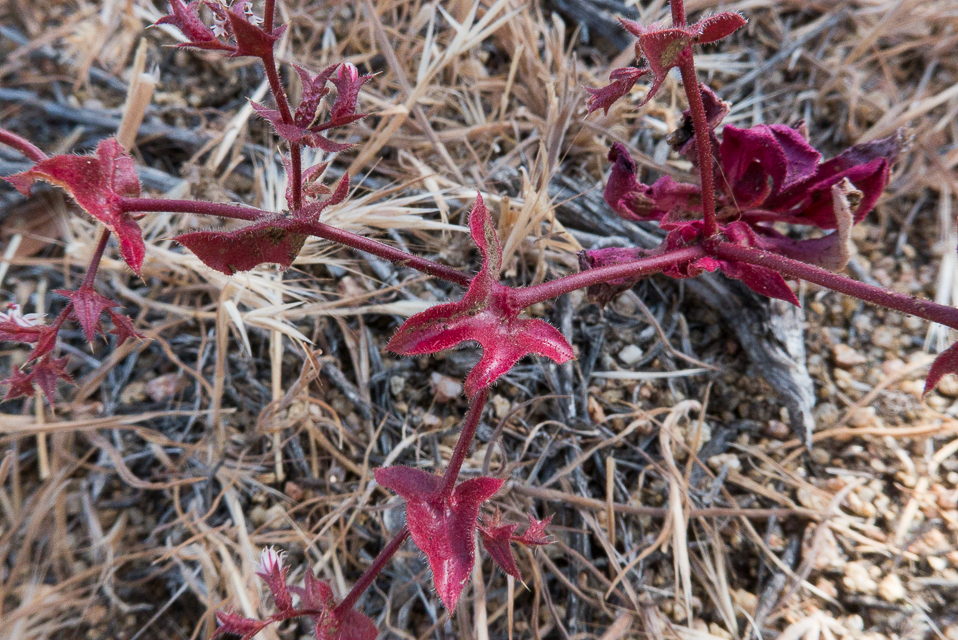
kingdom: Plantae
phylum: Tracheophyta
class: Magnoliopsida
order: Caryophyllales
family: Polygonaceae
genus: Mucronea
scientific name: Mucronea perfoliata
